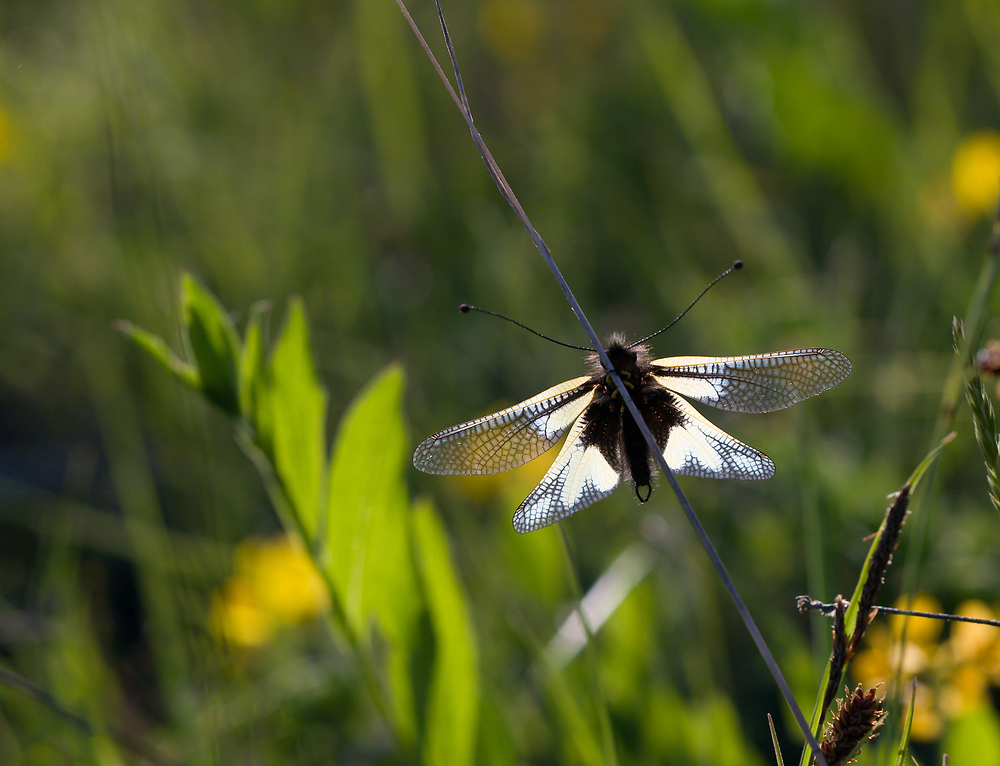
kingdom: Animalia
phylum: Arthropoda
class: Insecta
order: Neuroptera
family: Ascalaphidae
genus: Libelloides
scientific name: Libelloides coccajus
